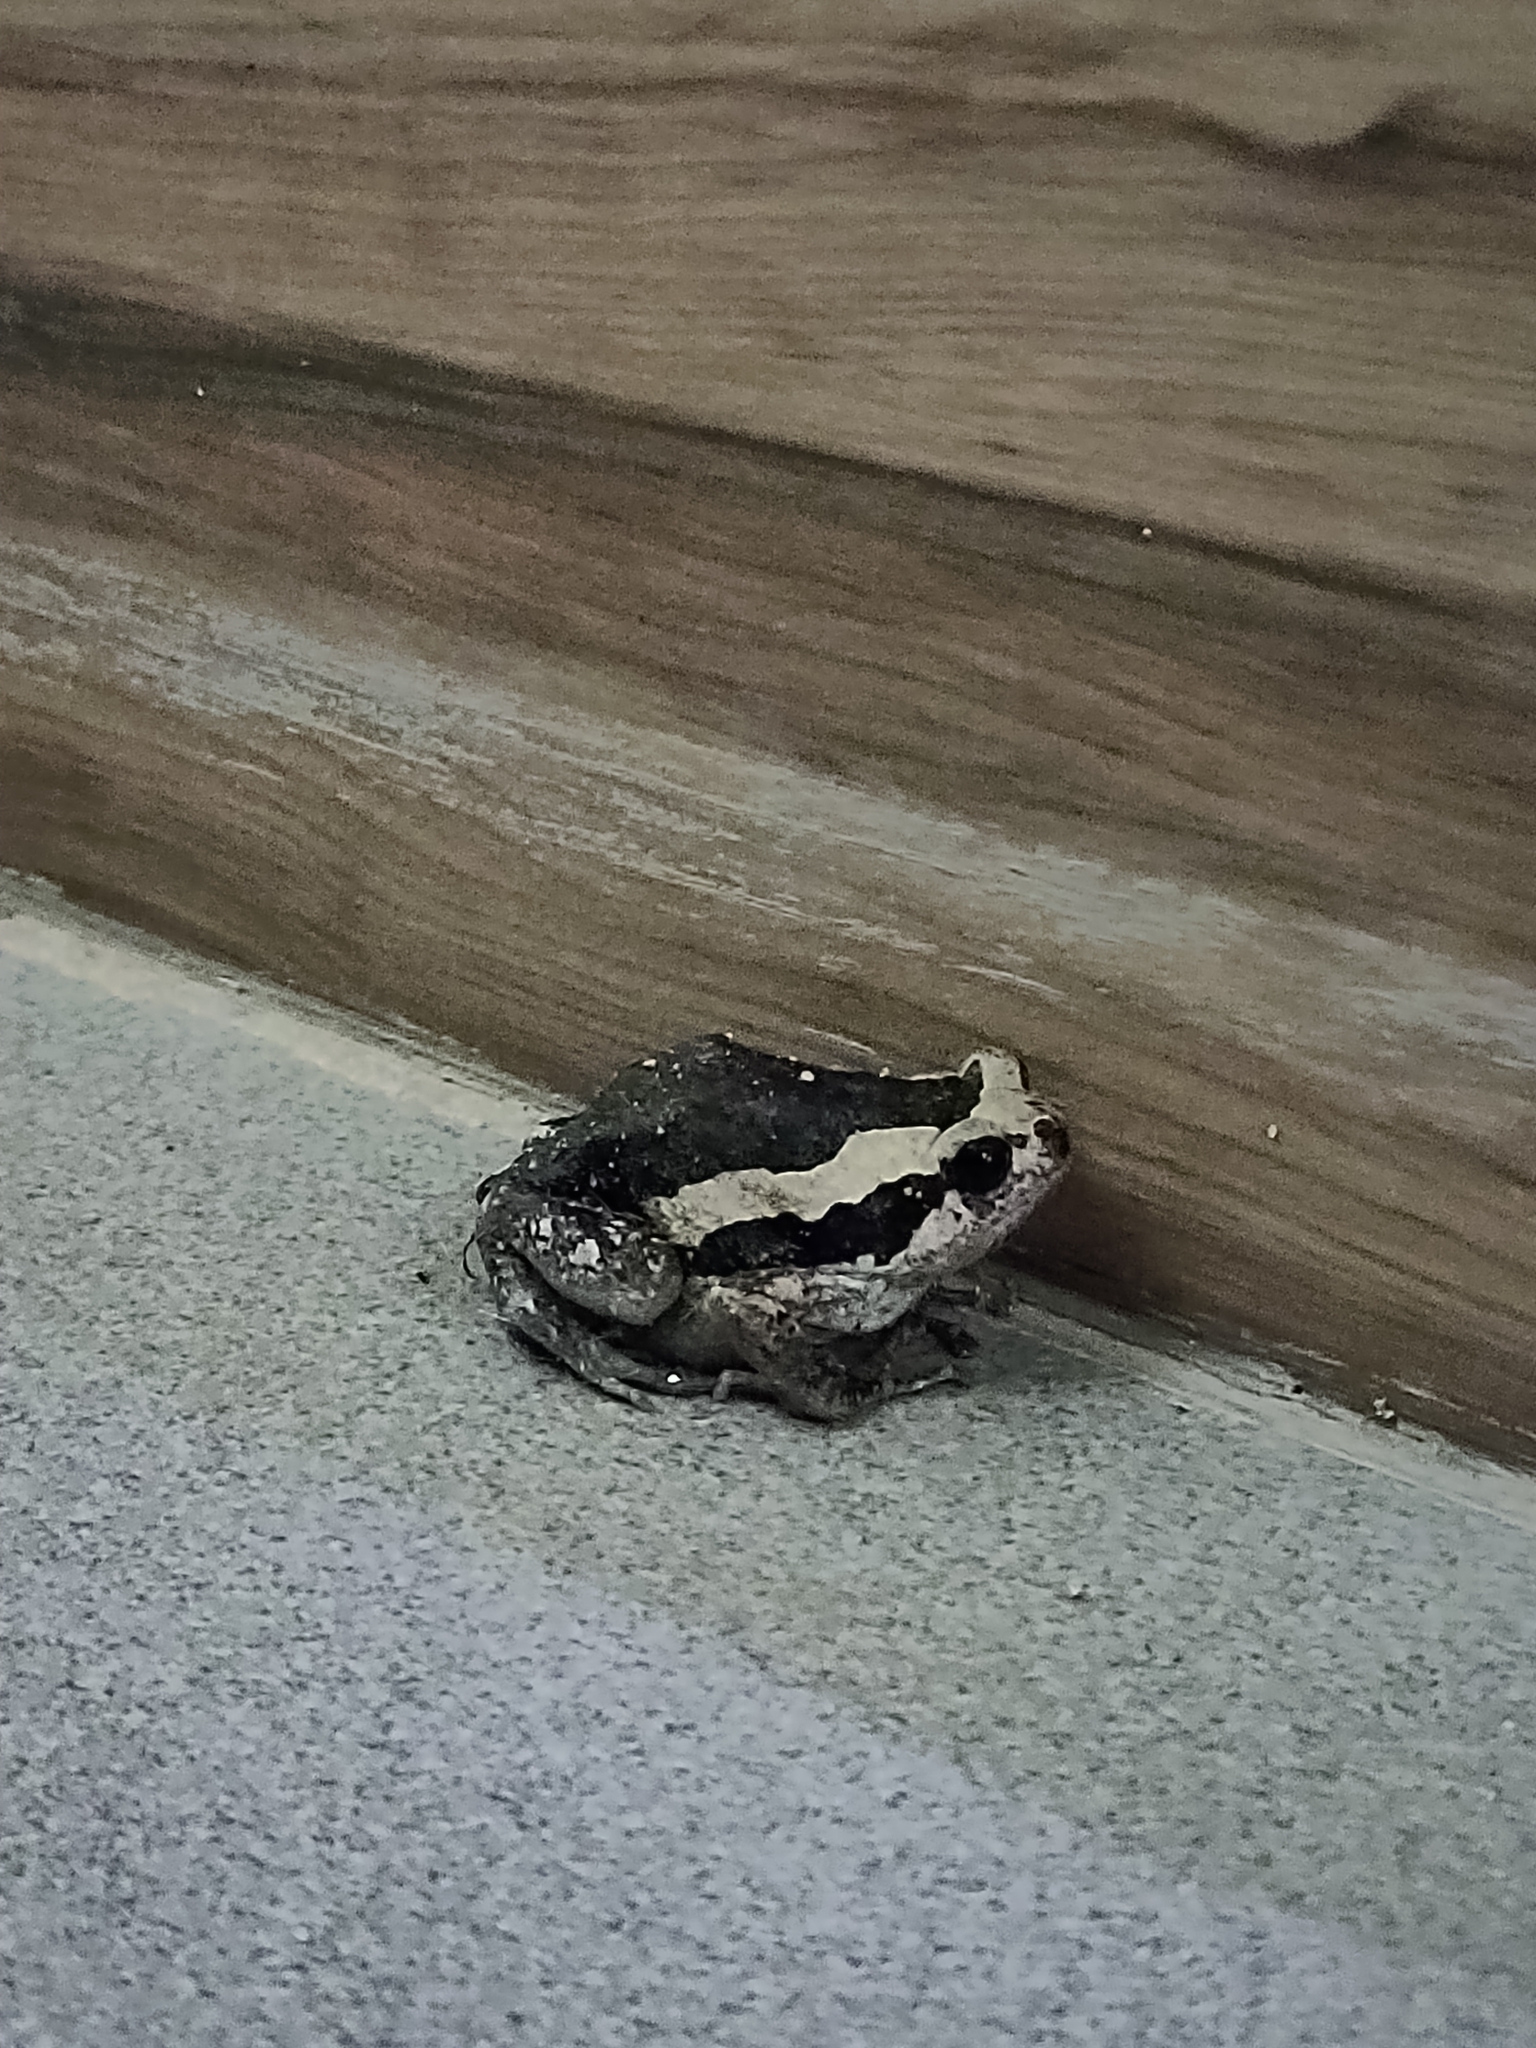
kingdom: Animalia
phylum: Chordata
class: Amphibia
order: Anura
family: Microhylidae
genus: Kaloula
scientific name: Kaloula pulchra
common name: Common,banded bullfrog
